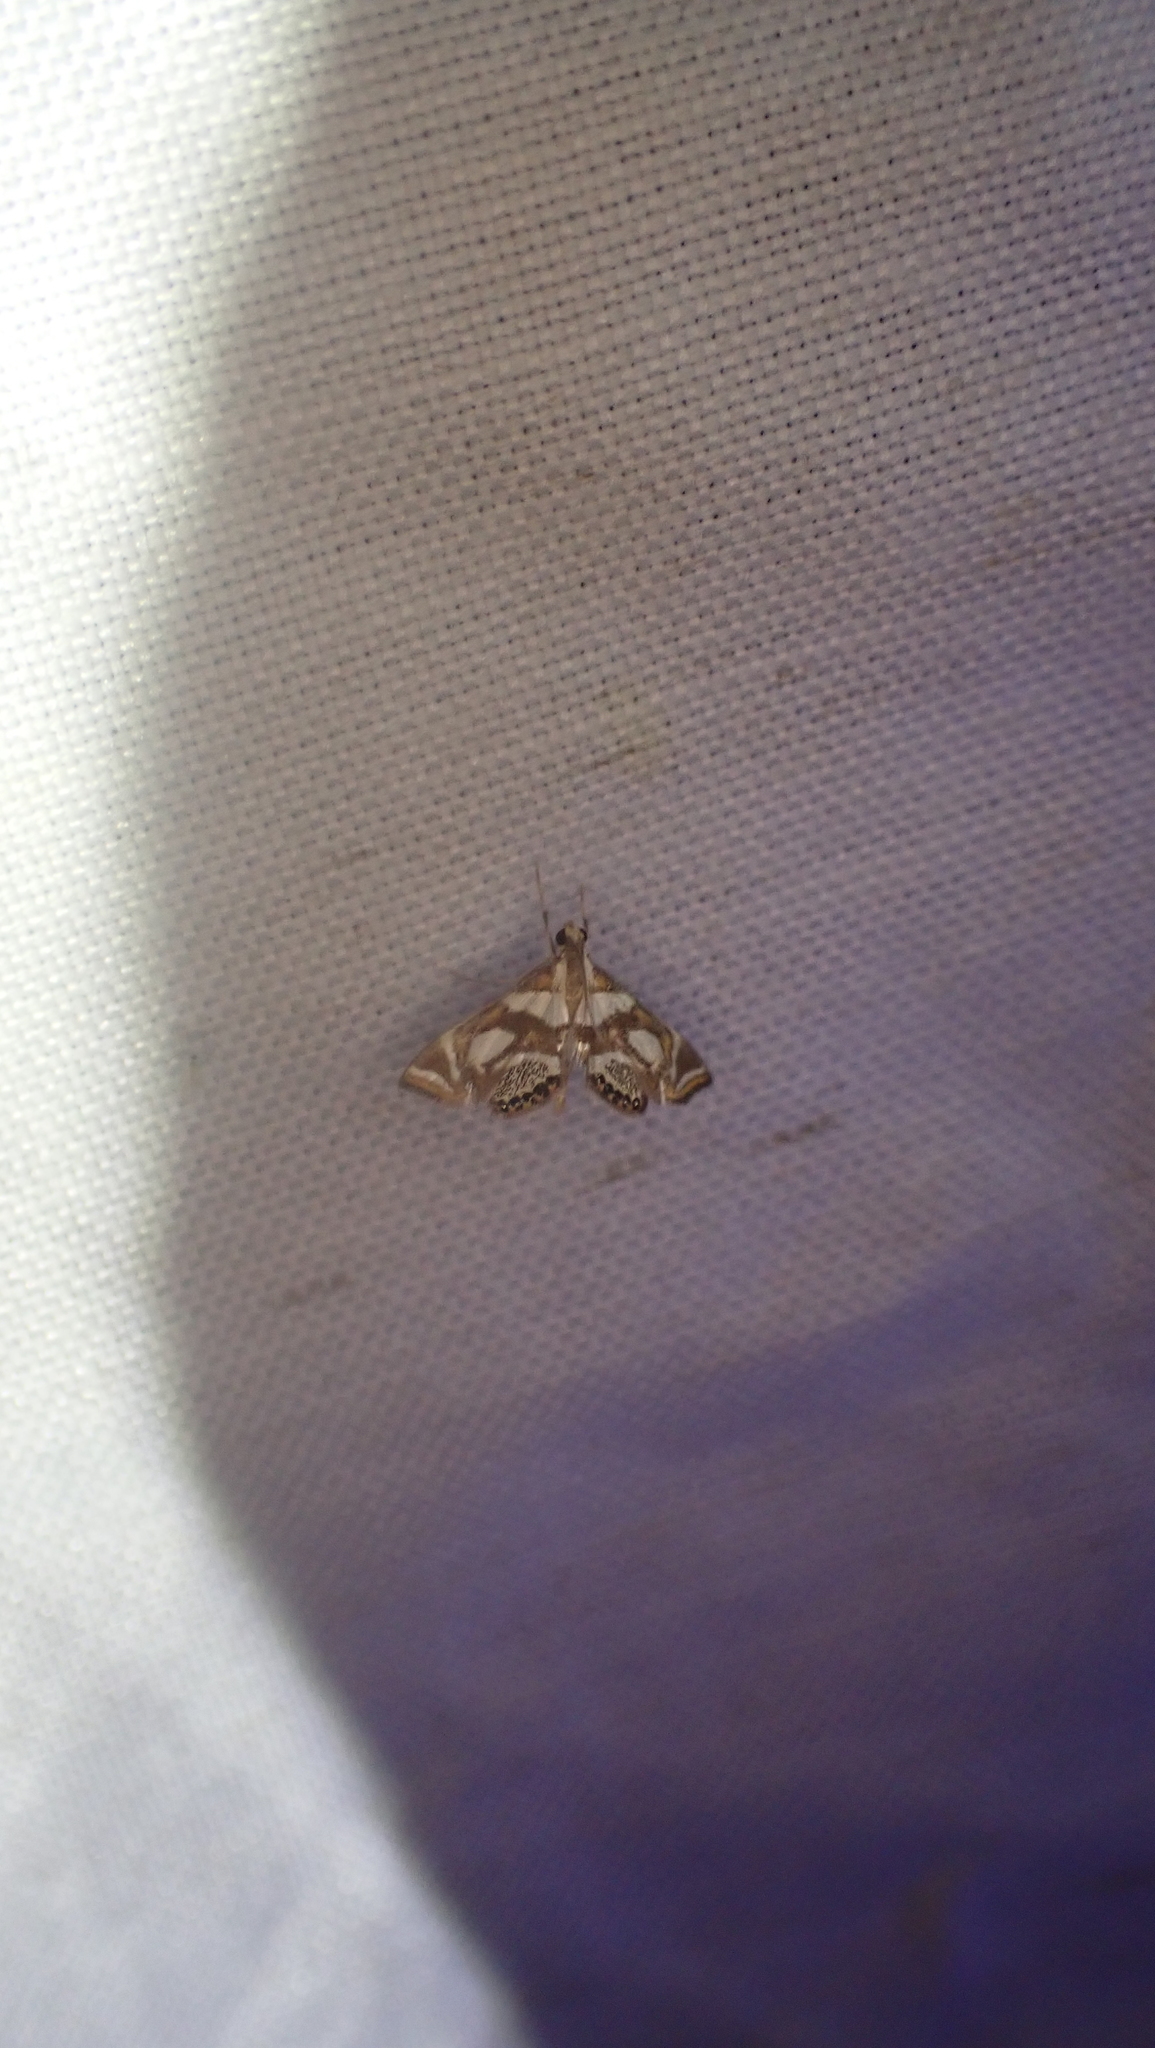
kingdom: Animalia
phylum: Arthropoda
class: Insecta
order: Lepidoptera
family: Crambidae
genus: Chrysendeton
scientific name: Chrysendeton medicinalis
